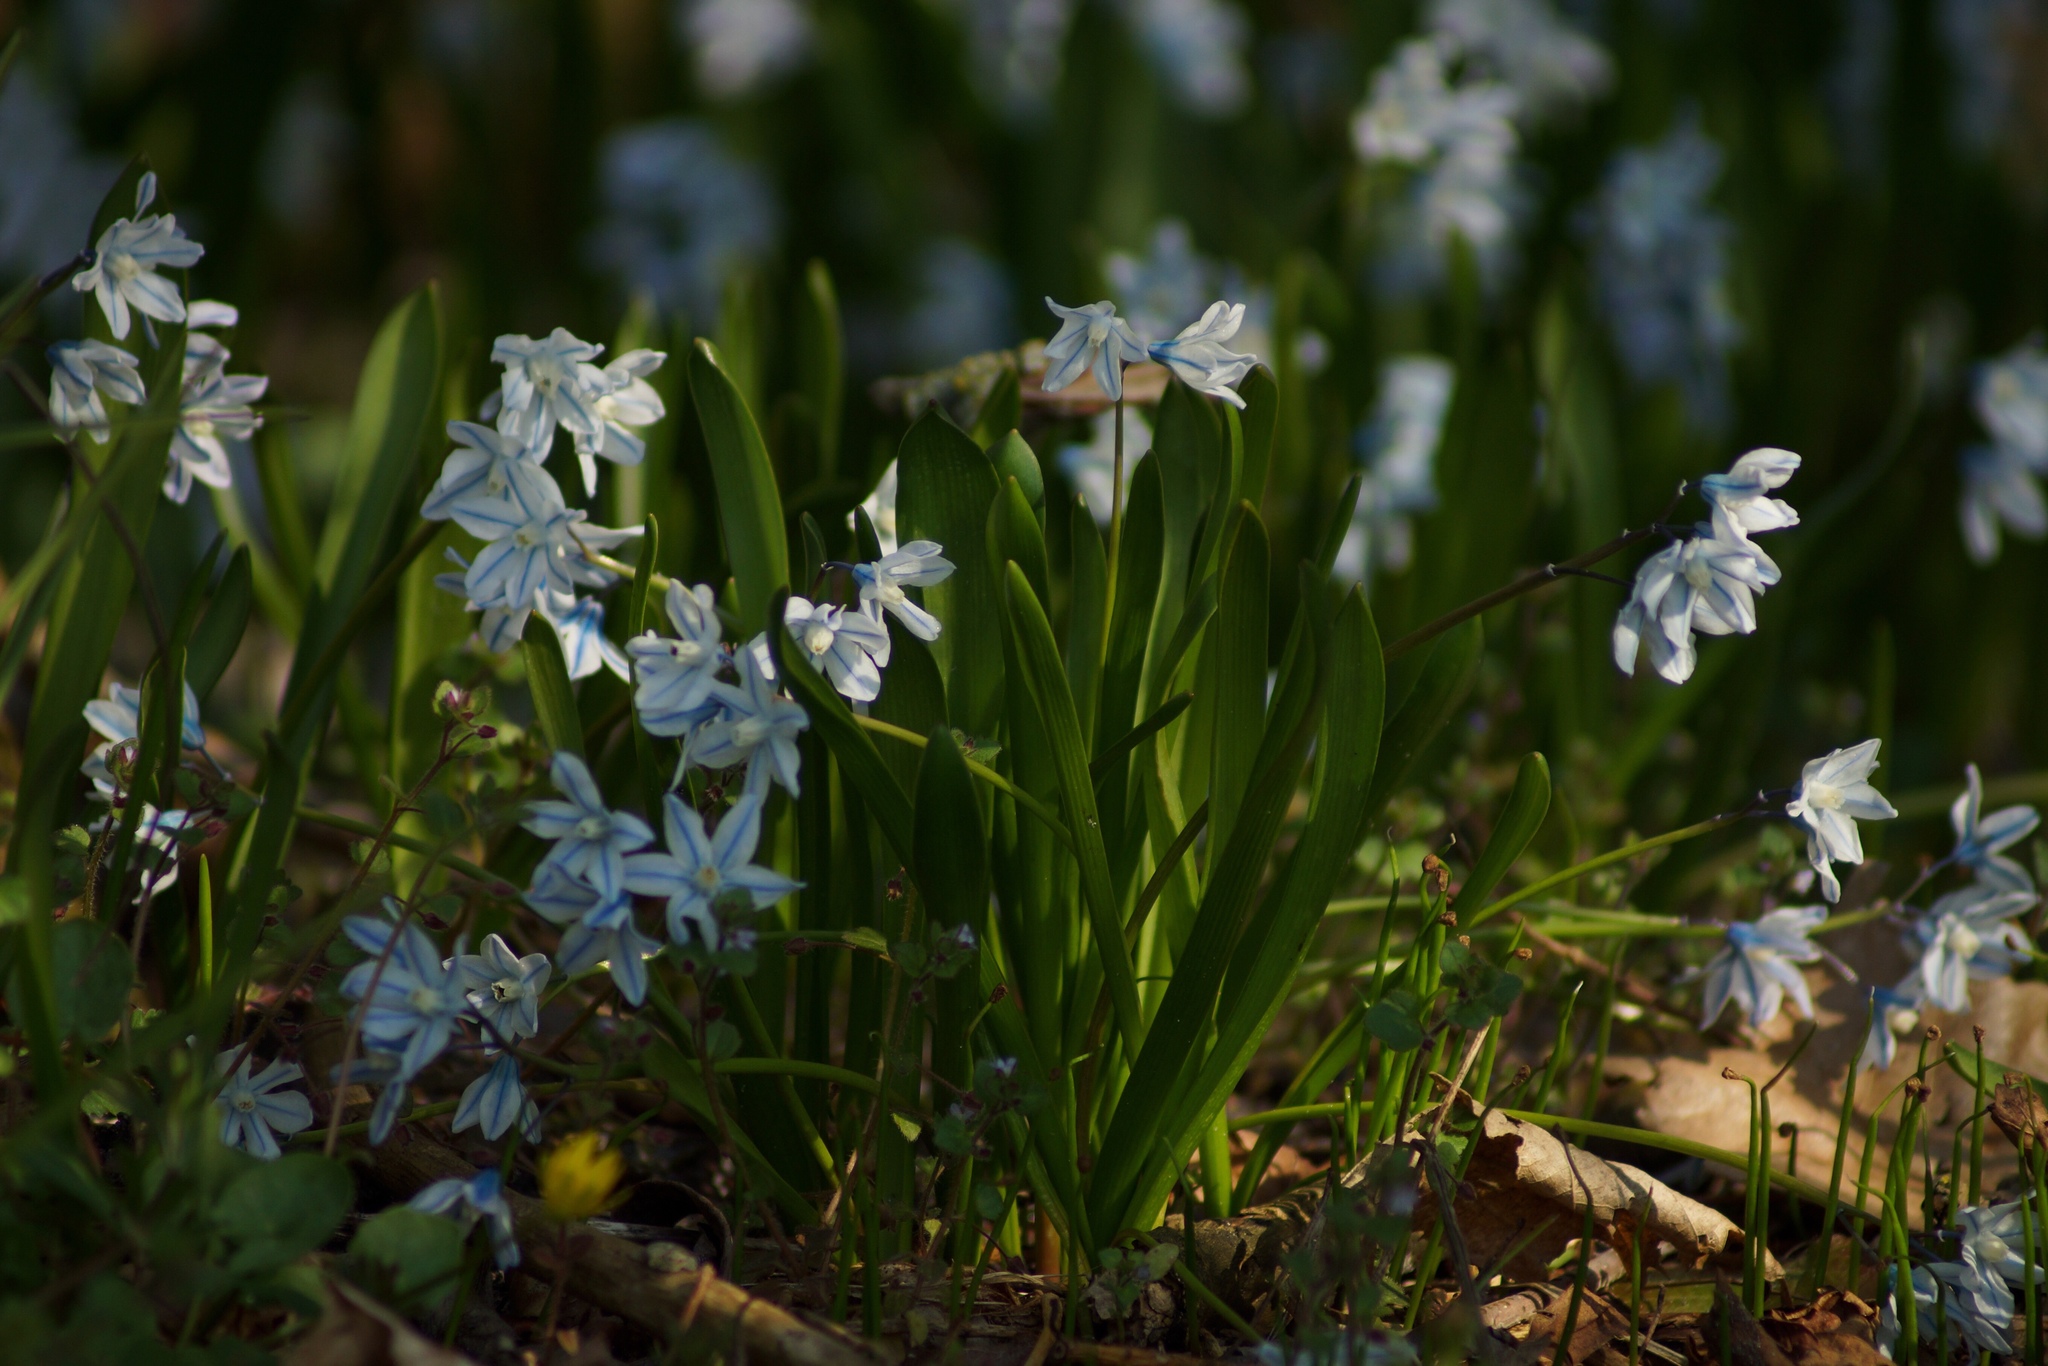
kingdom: Plantae
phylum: Tracheophyta
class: Liliopsida
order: Asparagales
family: Asparagaceae
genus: Puschkinia
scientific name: Puschkinia scilloides
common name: Striped squill
